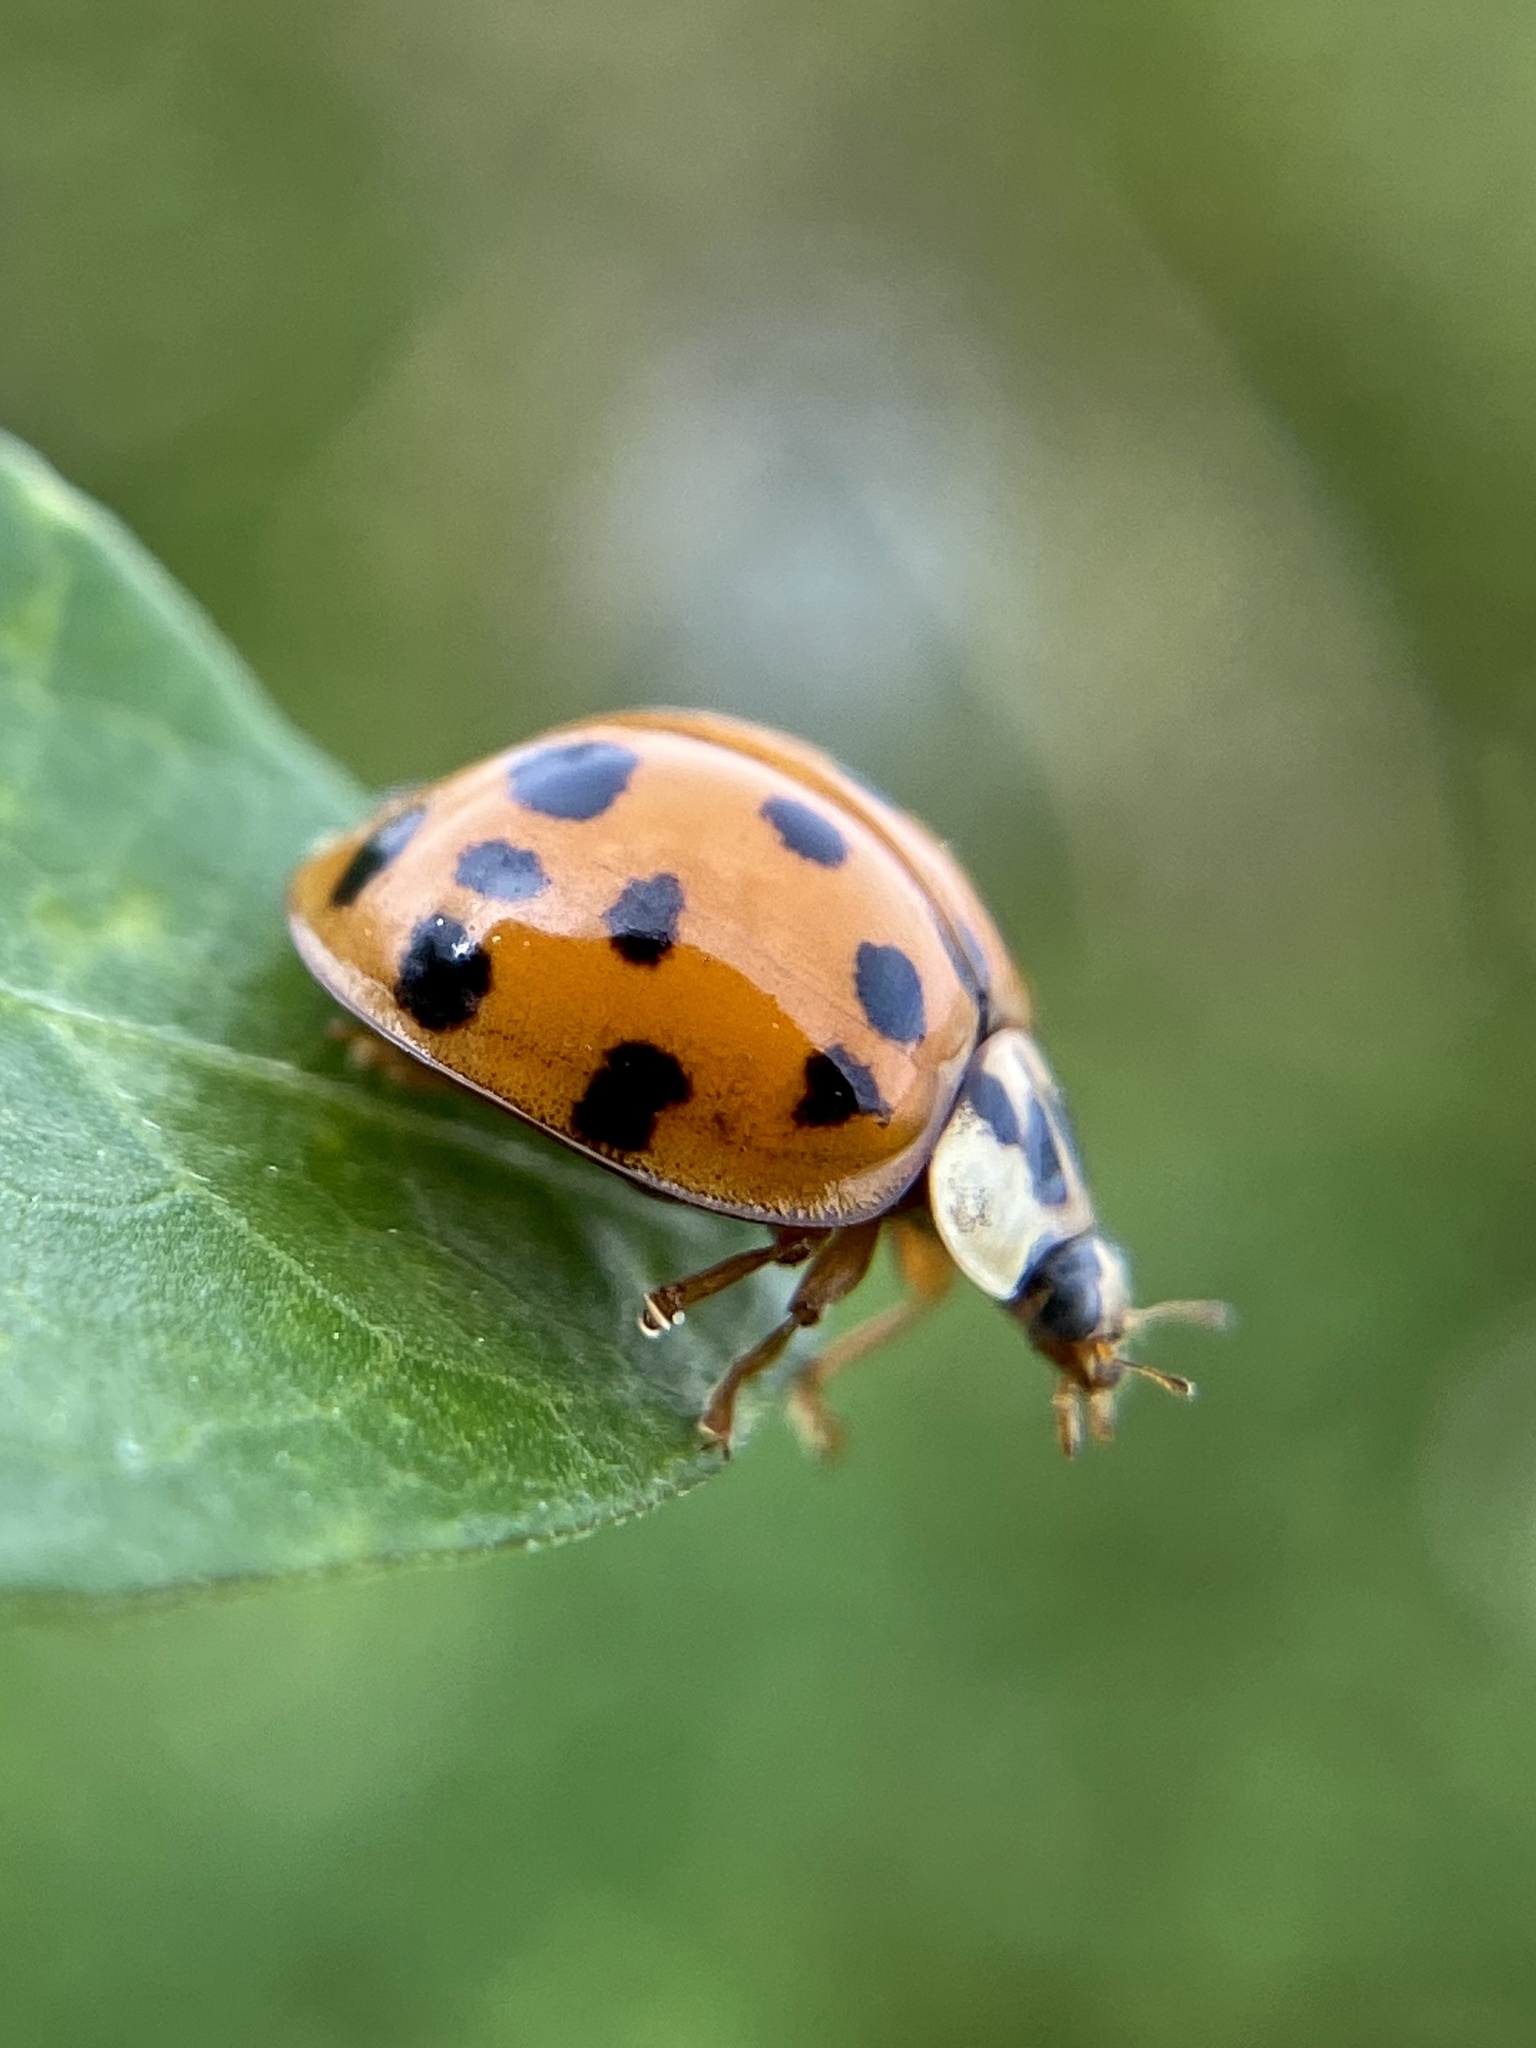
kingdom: Animalia
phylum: Arthropoda
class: Insecta
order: Coleoptera
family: Coccinellidae
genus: Harmonia
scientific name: Harmonia axyridis
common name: Harlequin ladybird
